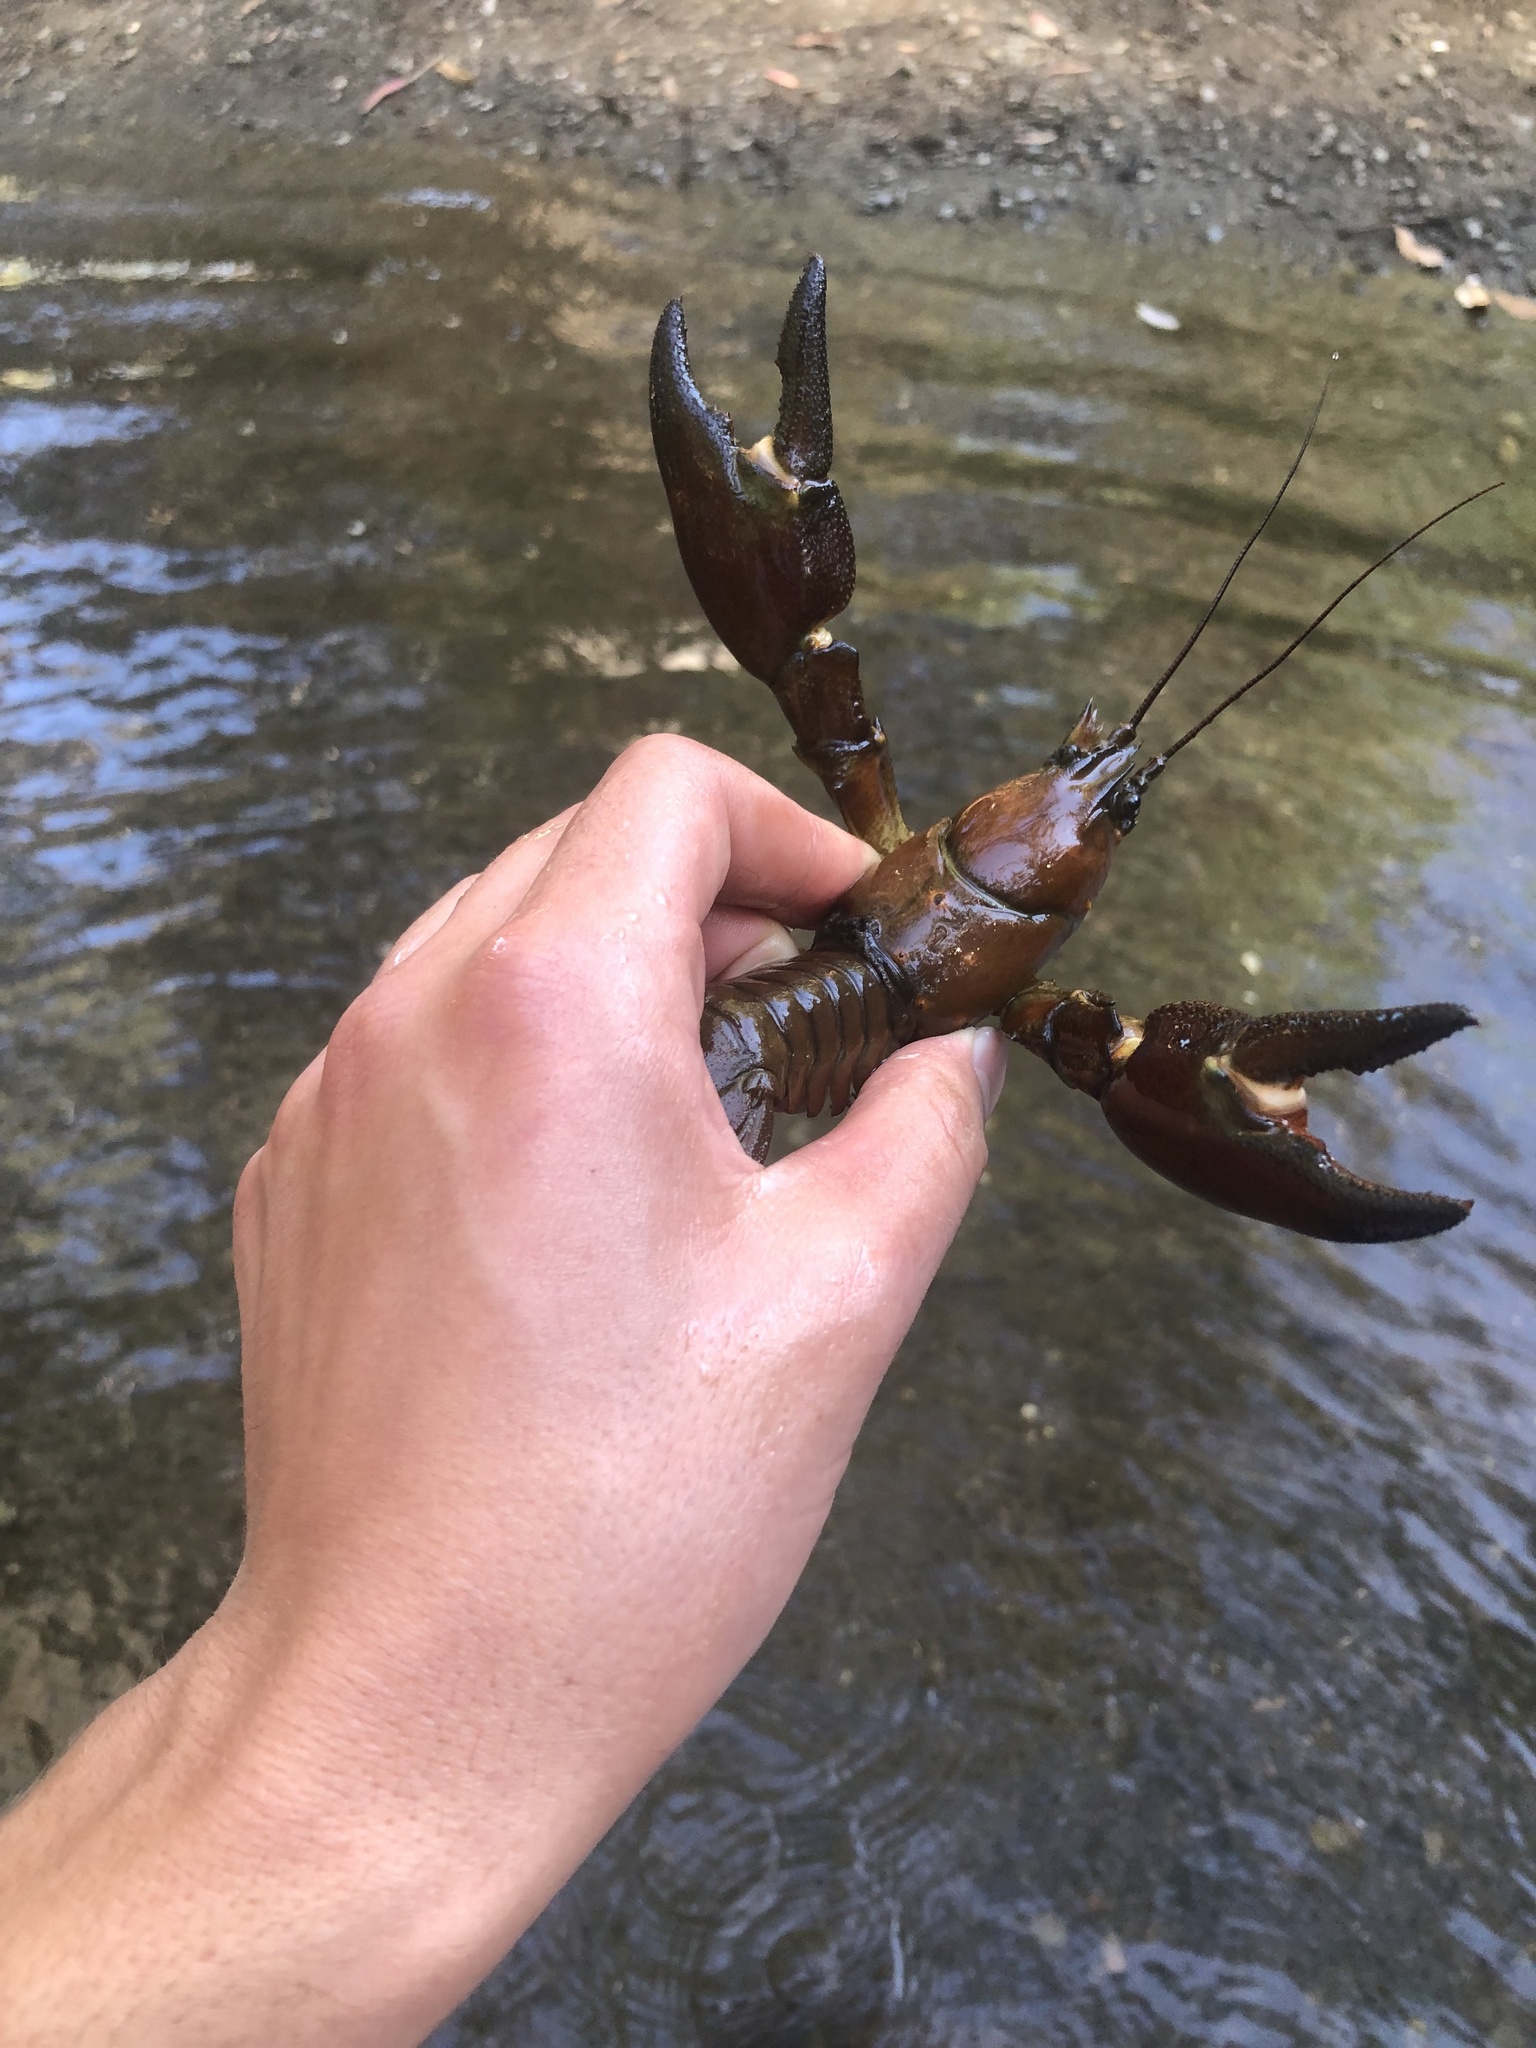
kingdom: Animalia
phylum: Arthropoda
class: Malacostraca
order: Decapoda
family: Astacidae
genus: Pacifastacus
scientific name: Pacifastacus leniusculus
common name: Signal crayfish
